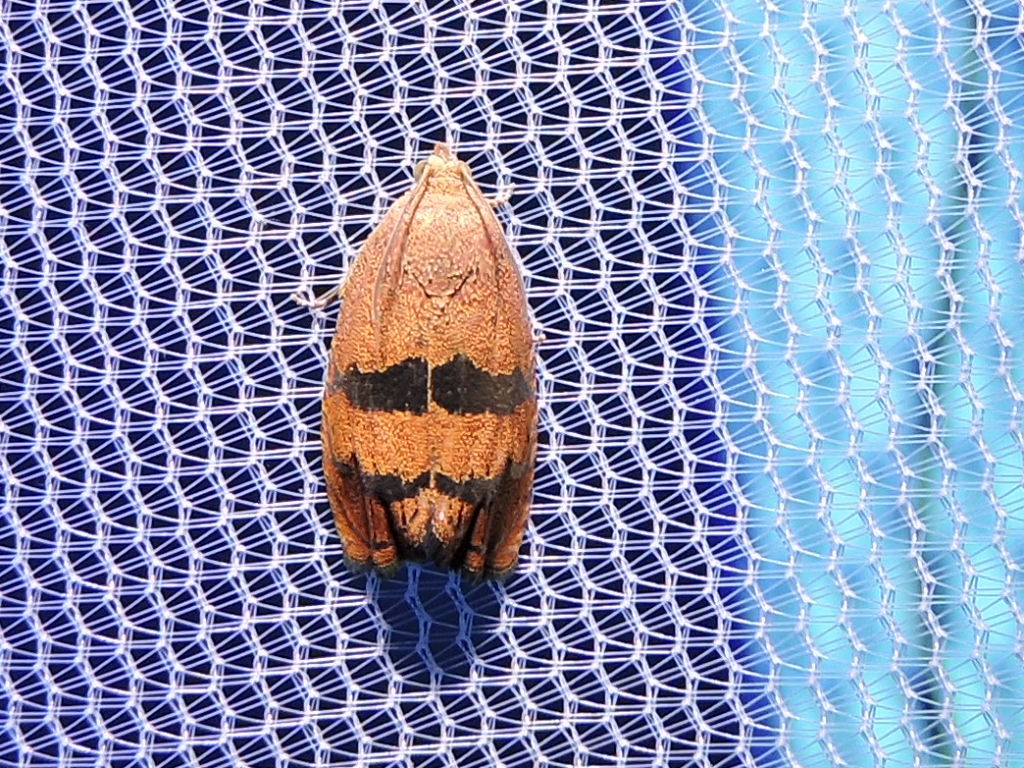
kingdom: Animalia
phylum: Arthropoda
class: Insecta
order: Lepidoptera
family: Tortricidae
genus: Cydia
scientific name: Cydia latiferreana
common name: Filbertworm moth
